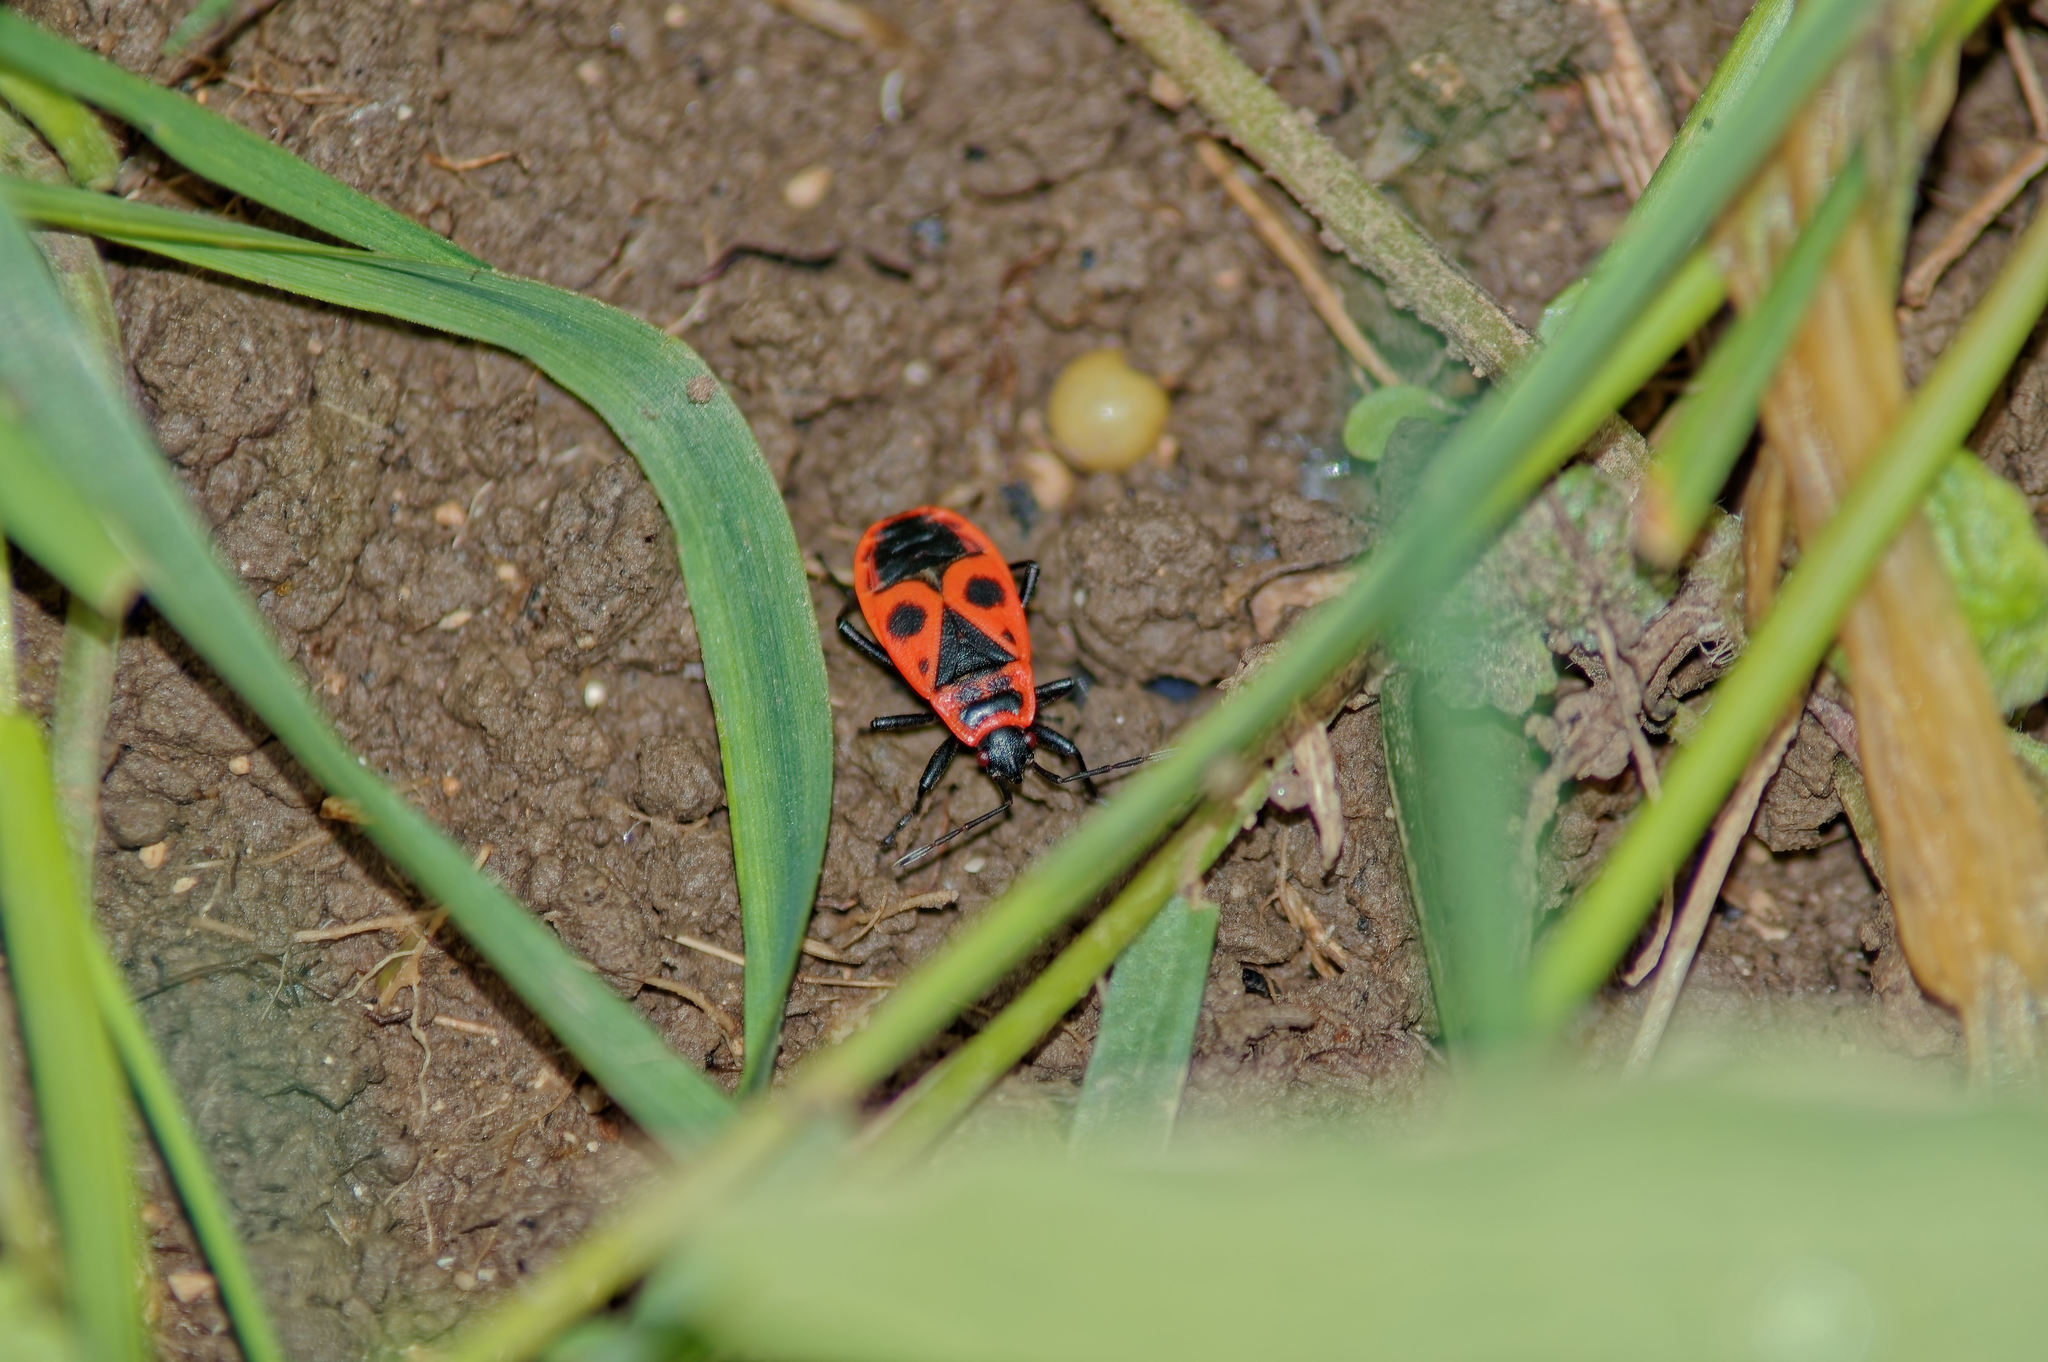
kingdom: Animalia
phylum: Arthropoda
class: Insecta
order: Hemiptera
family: Pyrrhocoridae
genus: Pyrrhocoris
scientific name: Pyrrhocoris apterus
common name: Firebug
